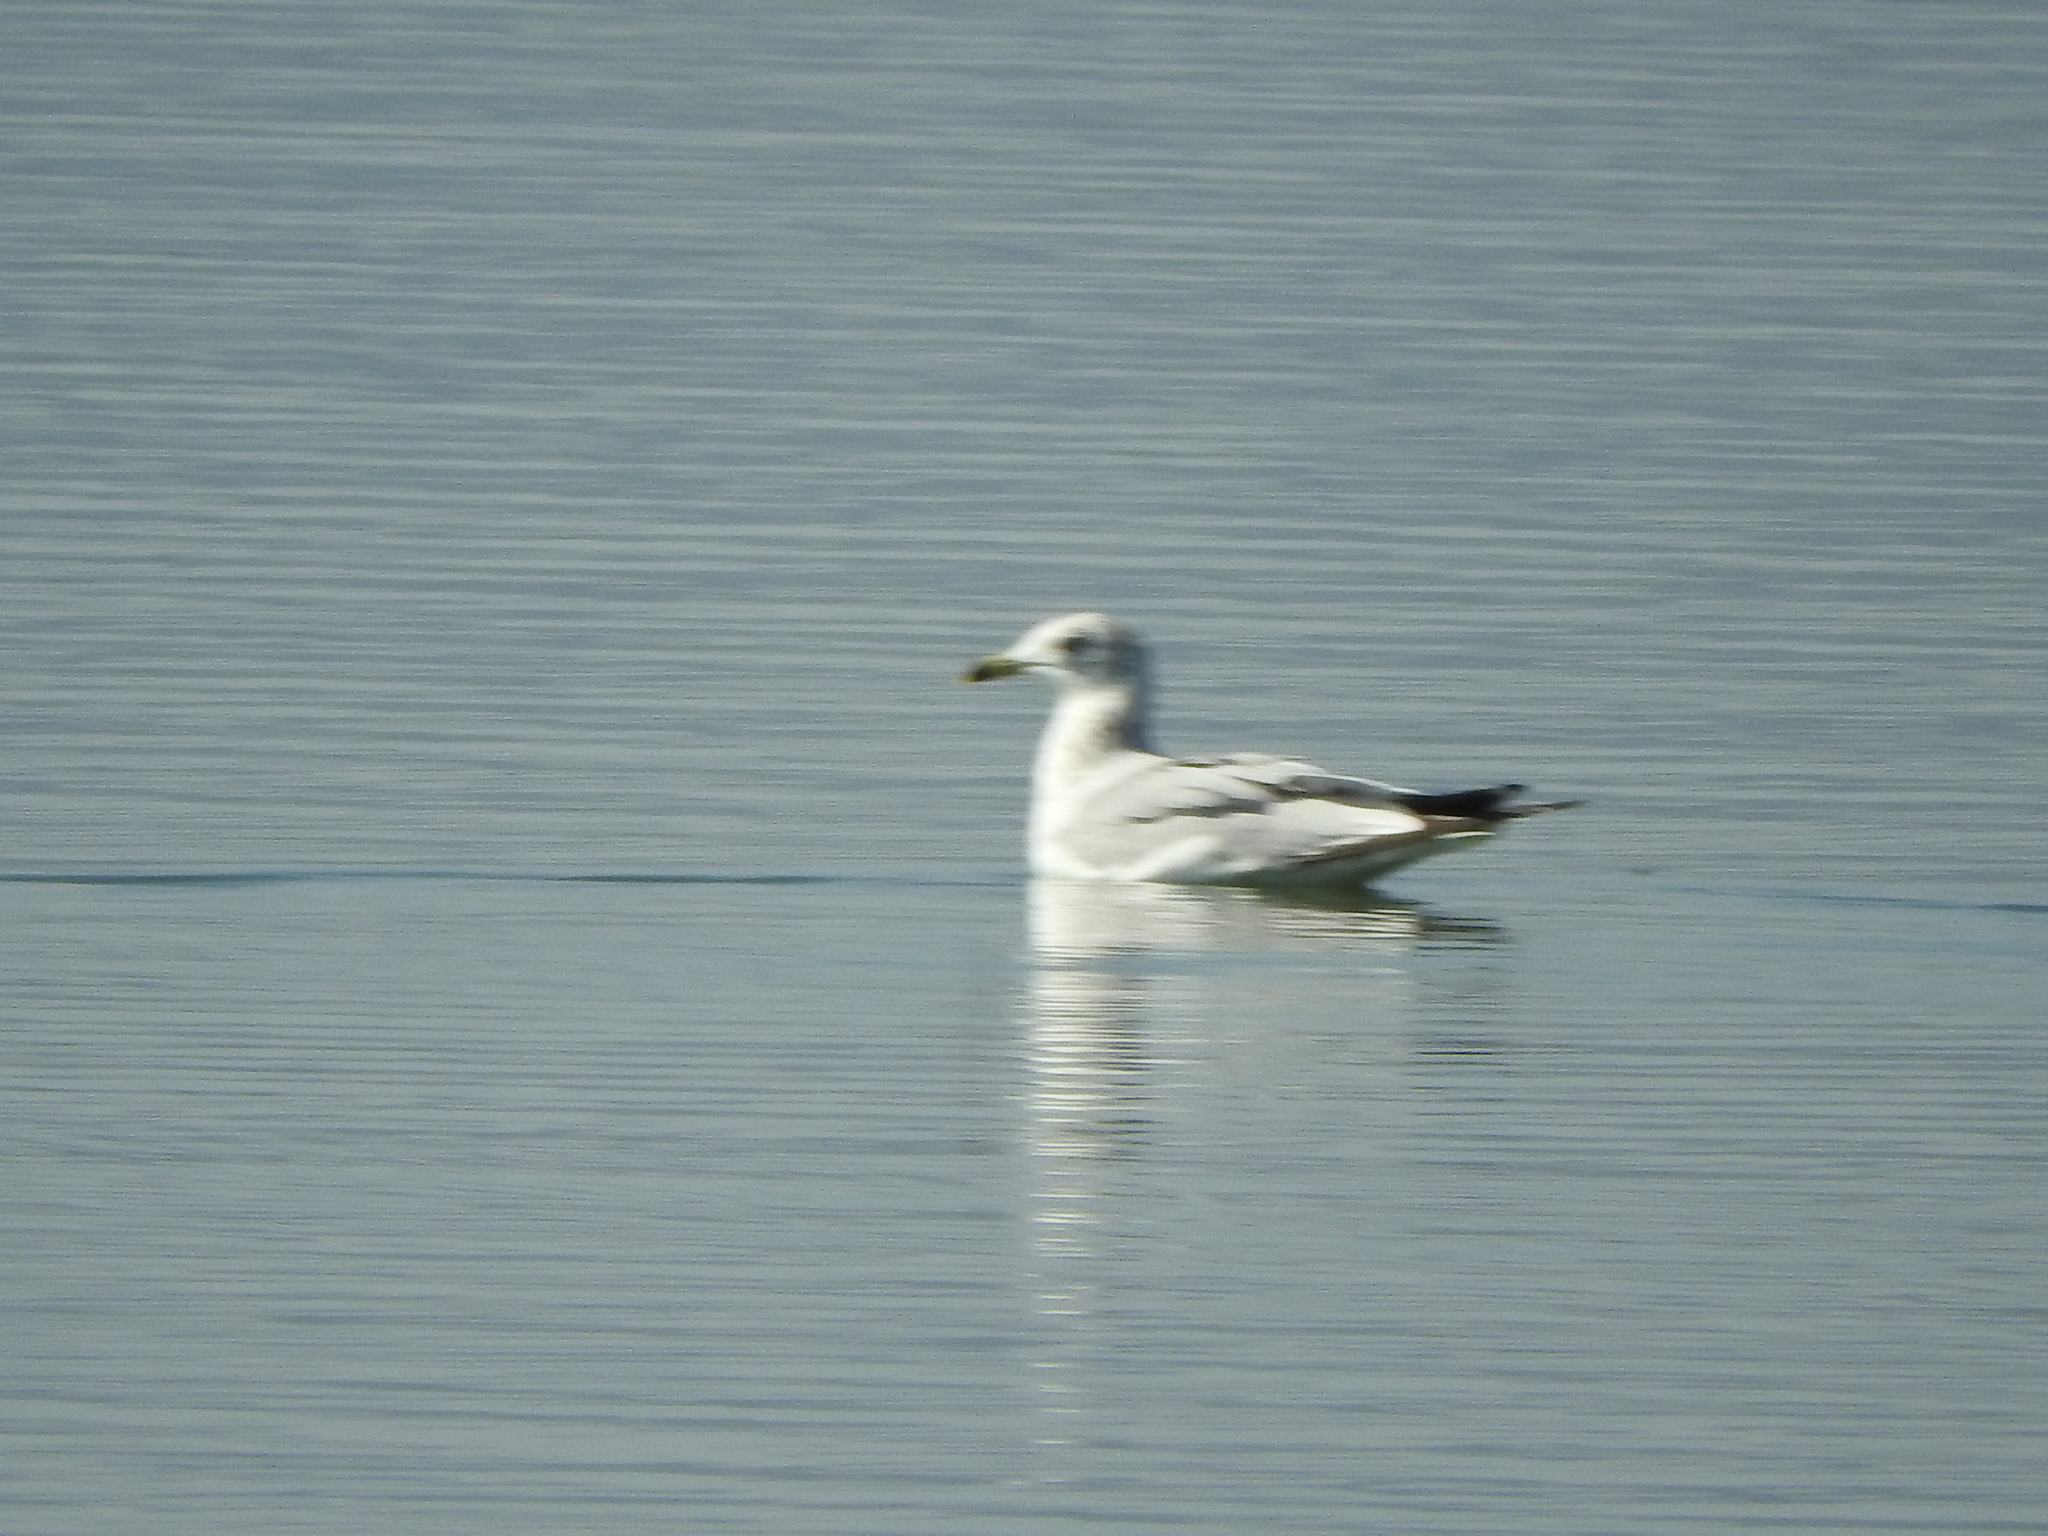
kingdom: Animalia
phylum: Chordata
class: Aves
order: Charadriiformes
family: Laridae
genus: Larus
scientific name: Larus delawarensis
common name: Ring-billed gull
